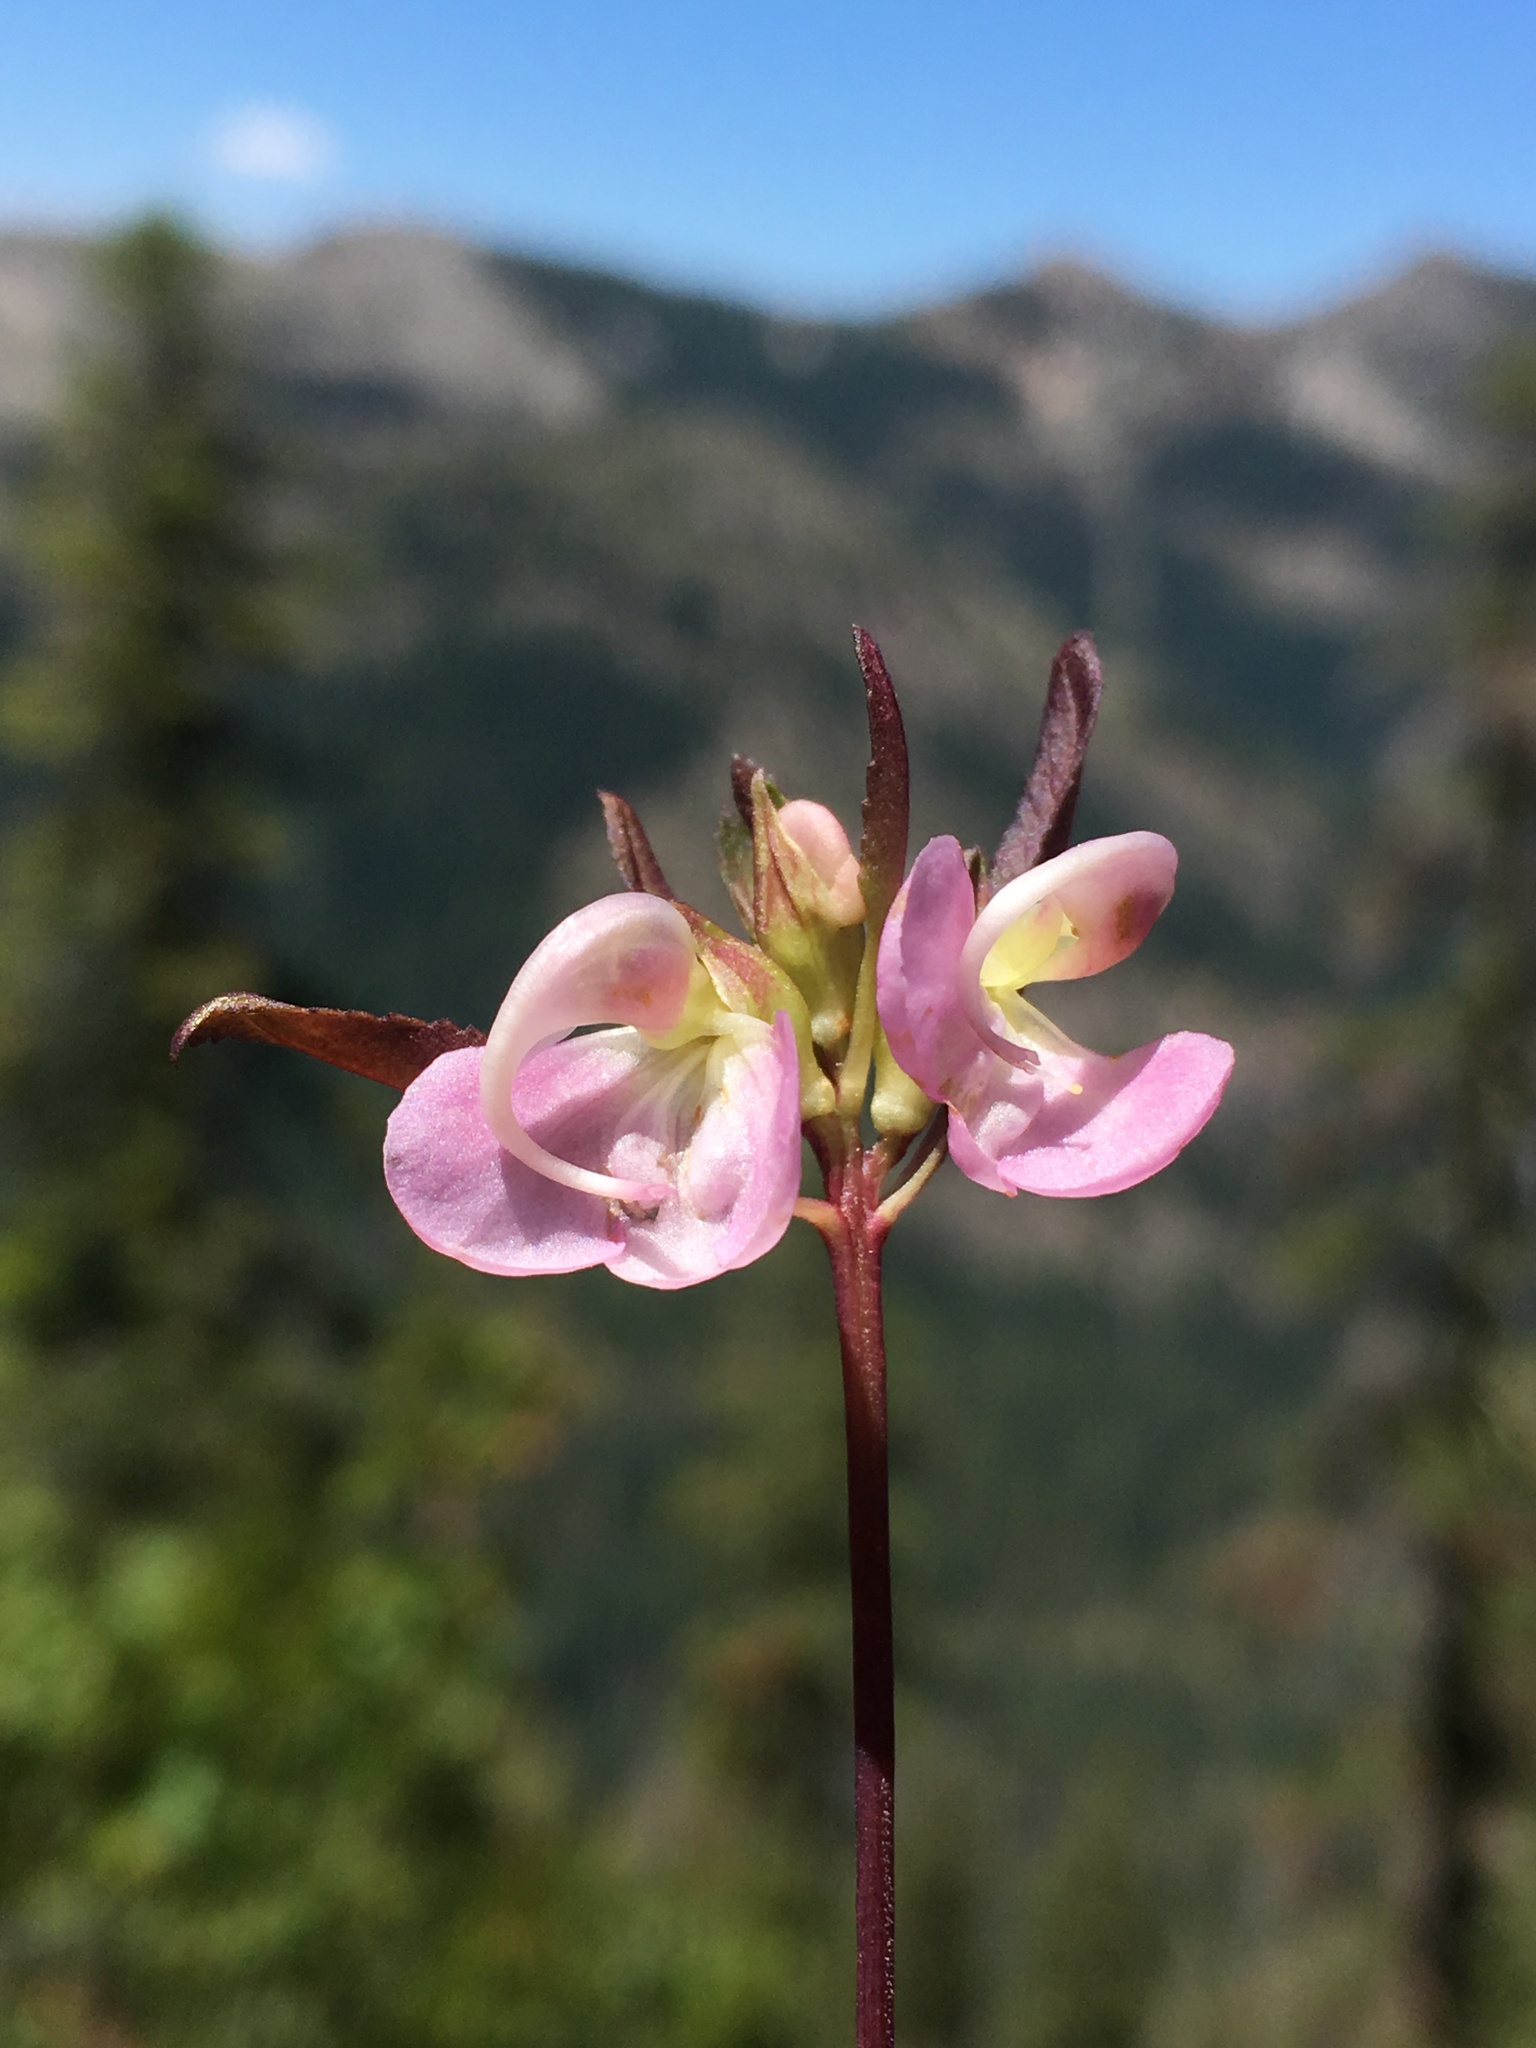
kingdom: Plantae
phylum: Tracheophyta
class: Magnoliopsida
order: Lamiales
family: Orobanchaceae
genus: Pedicularis
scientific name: Pedicularis racemosa
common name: Leafy lousewort
